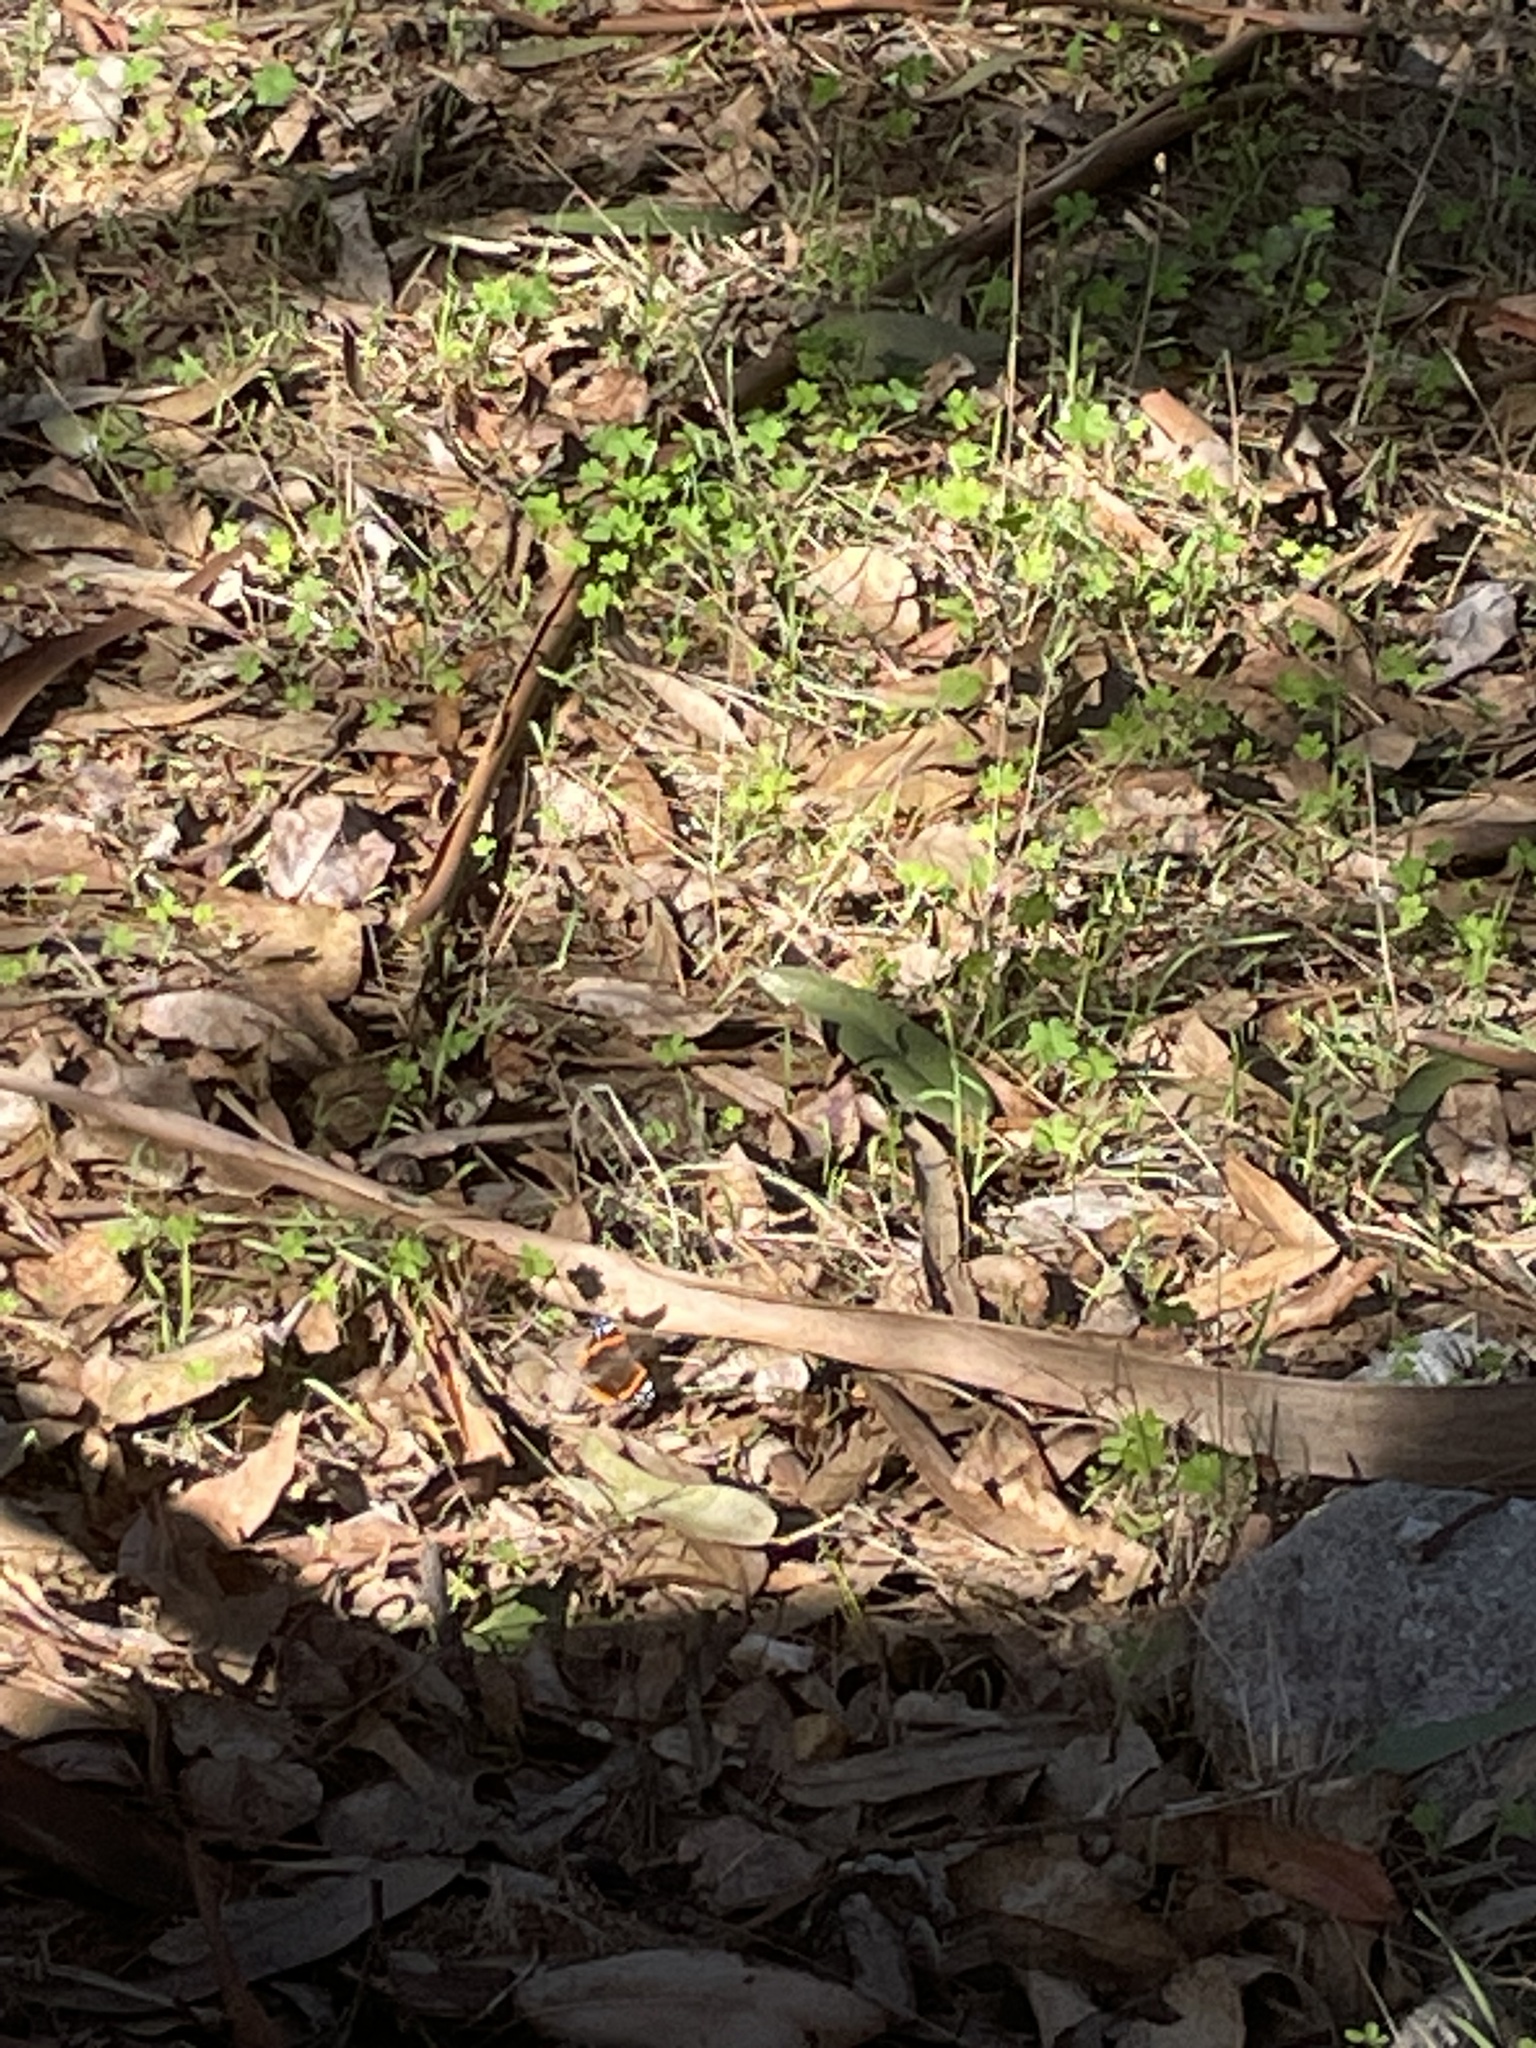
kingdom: Animalia
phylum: Arthropoda
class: Insecta
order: Lepidoptera
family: Nymphalidae
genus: Vanessa
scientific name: Vanessa atalanta
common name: Red admiral
